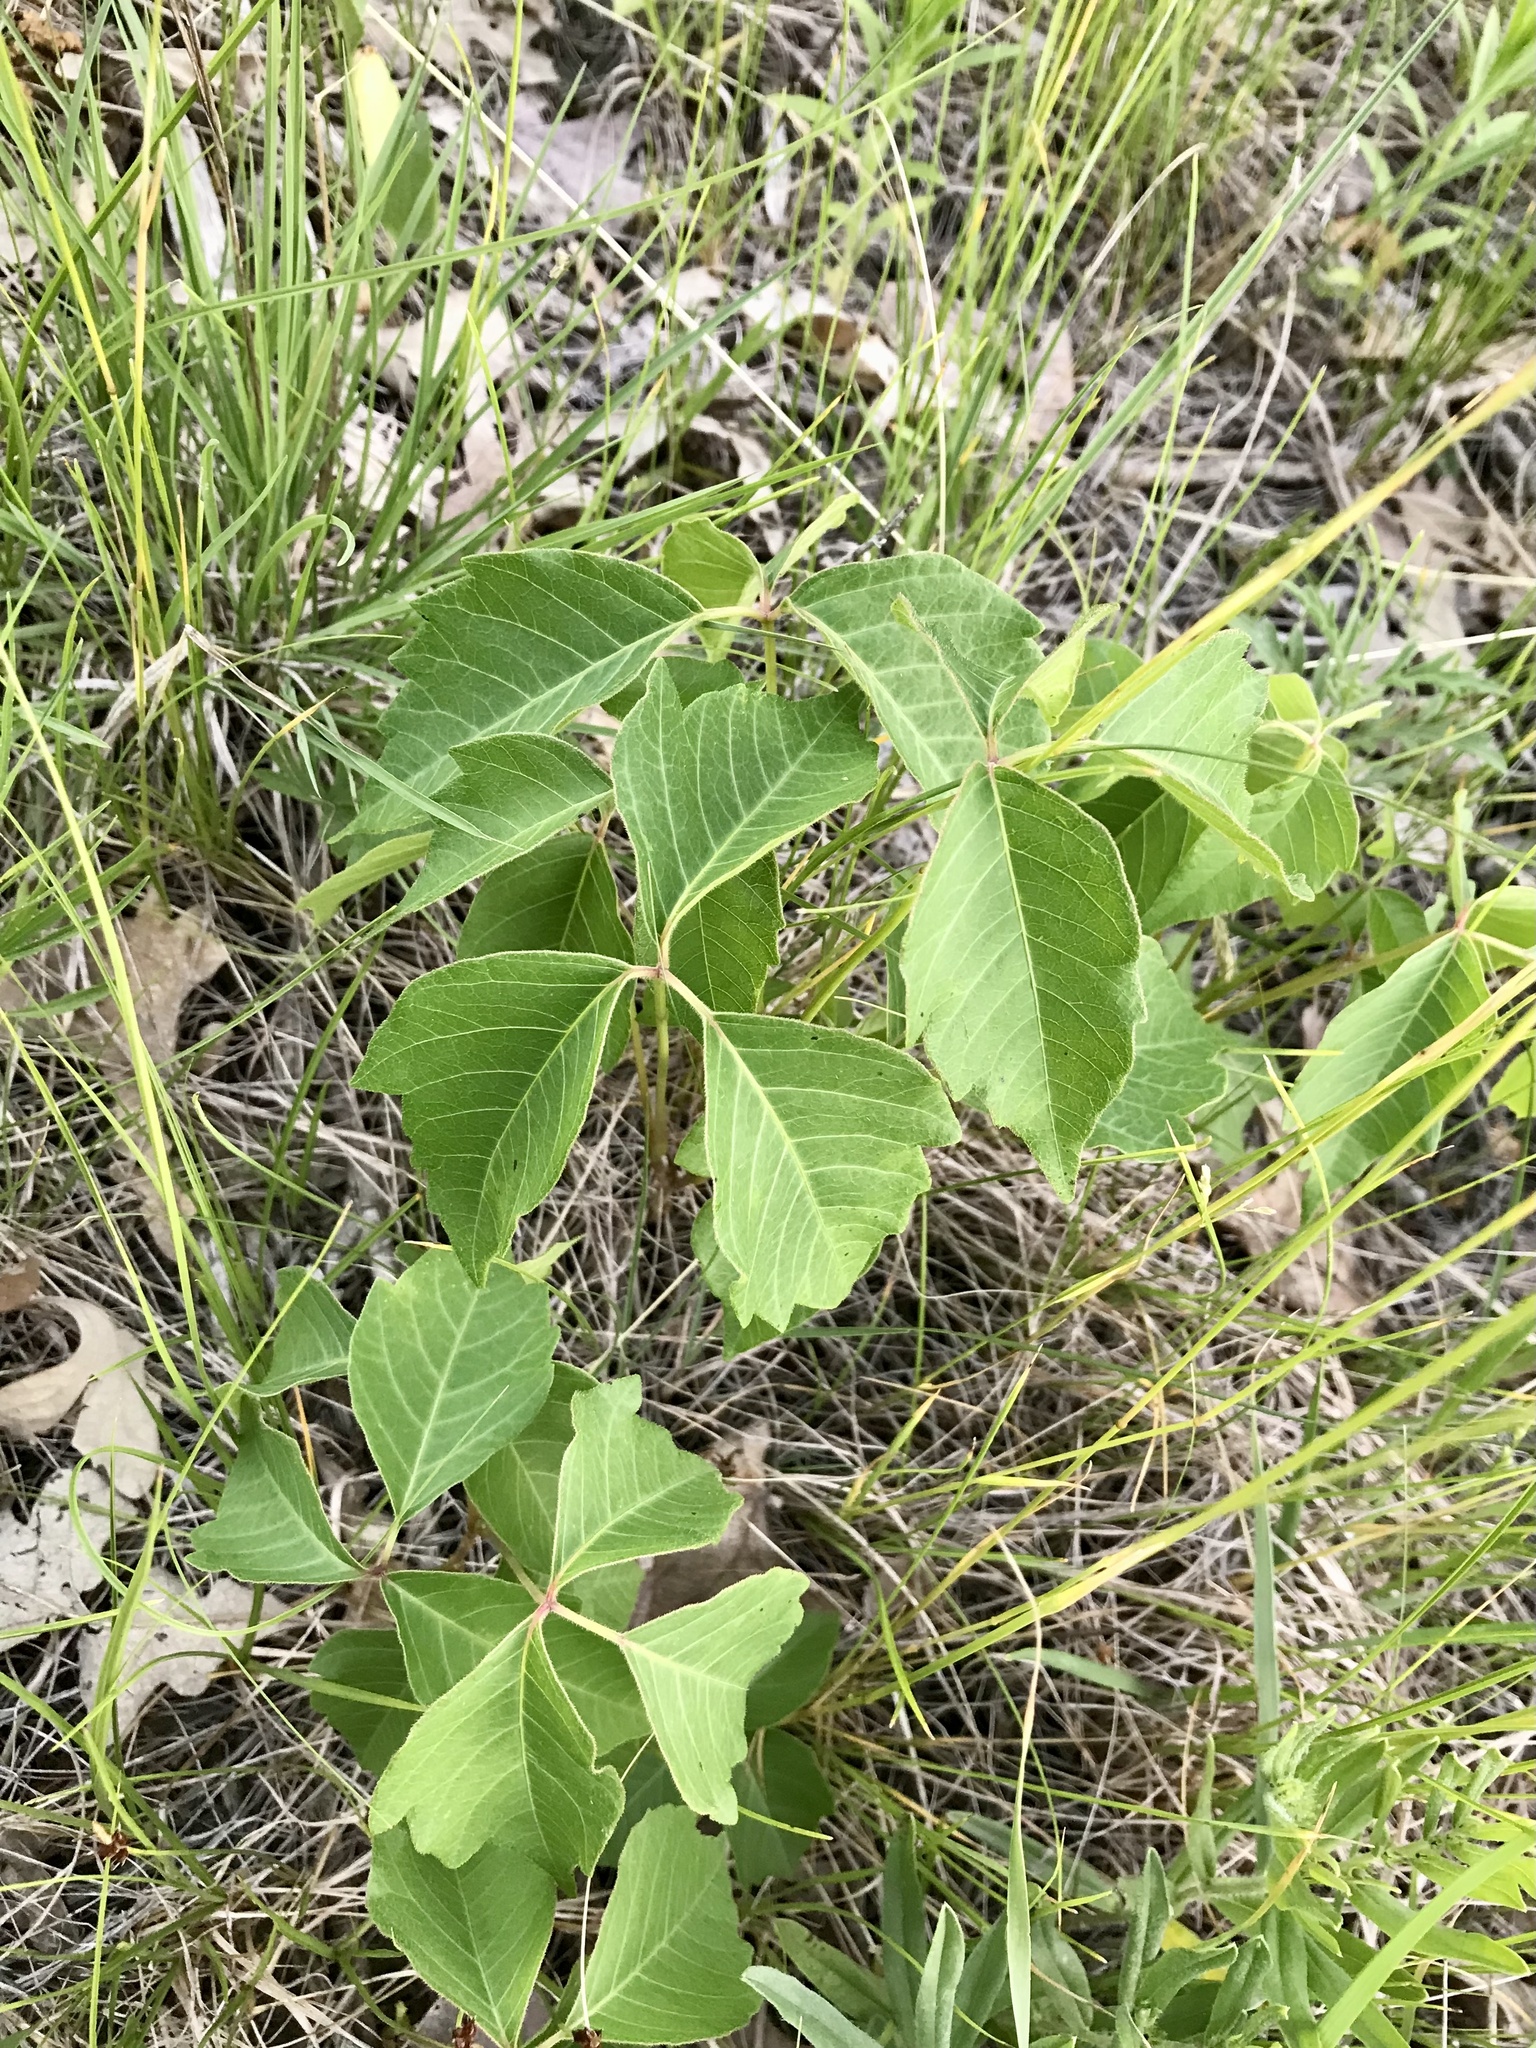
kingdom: Plantae
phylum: Tracheophyta
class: Magnoliopsida
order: Sapindales
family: Anacardiaceae
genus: Toxicodendron
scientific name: Toxicodendron rydbergii
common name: Rydberg's poison-ivy
